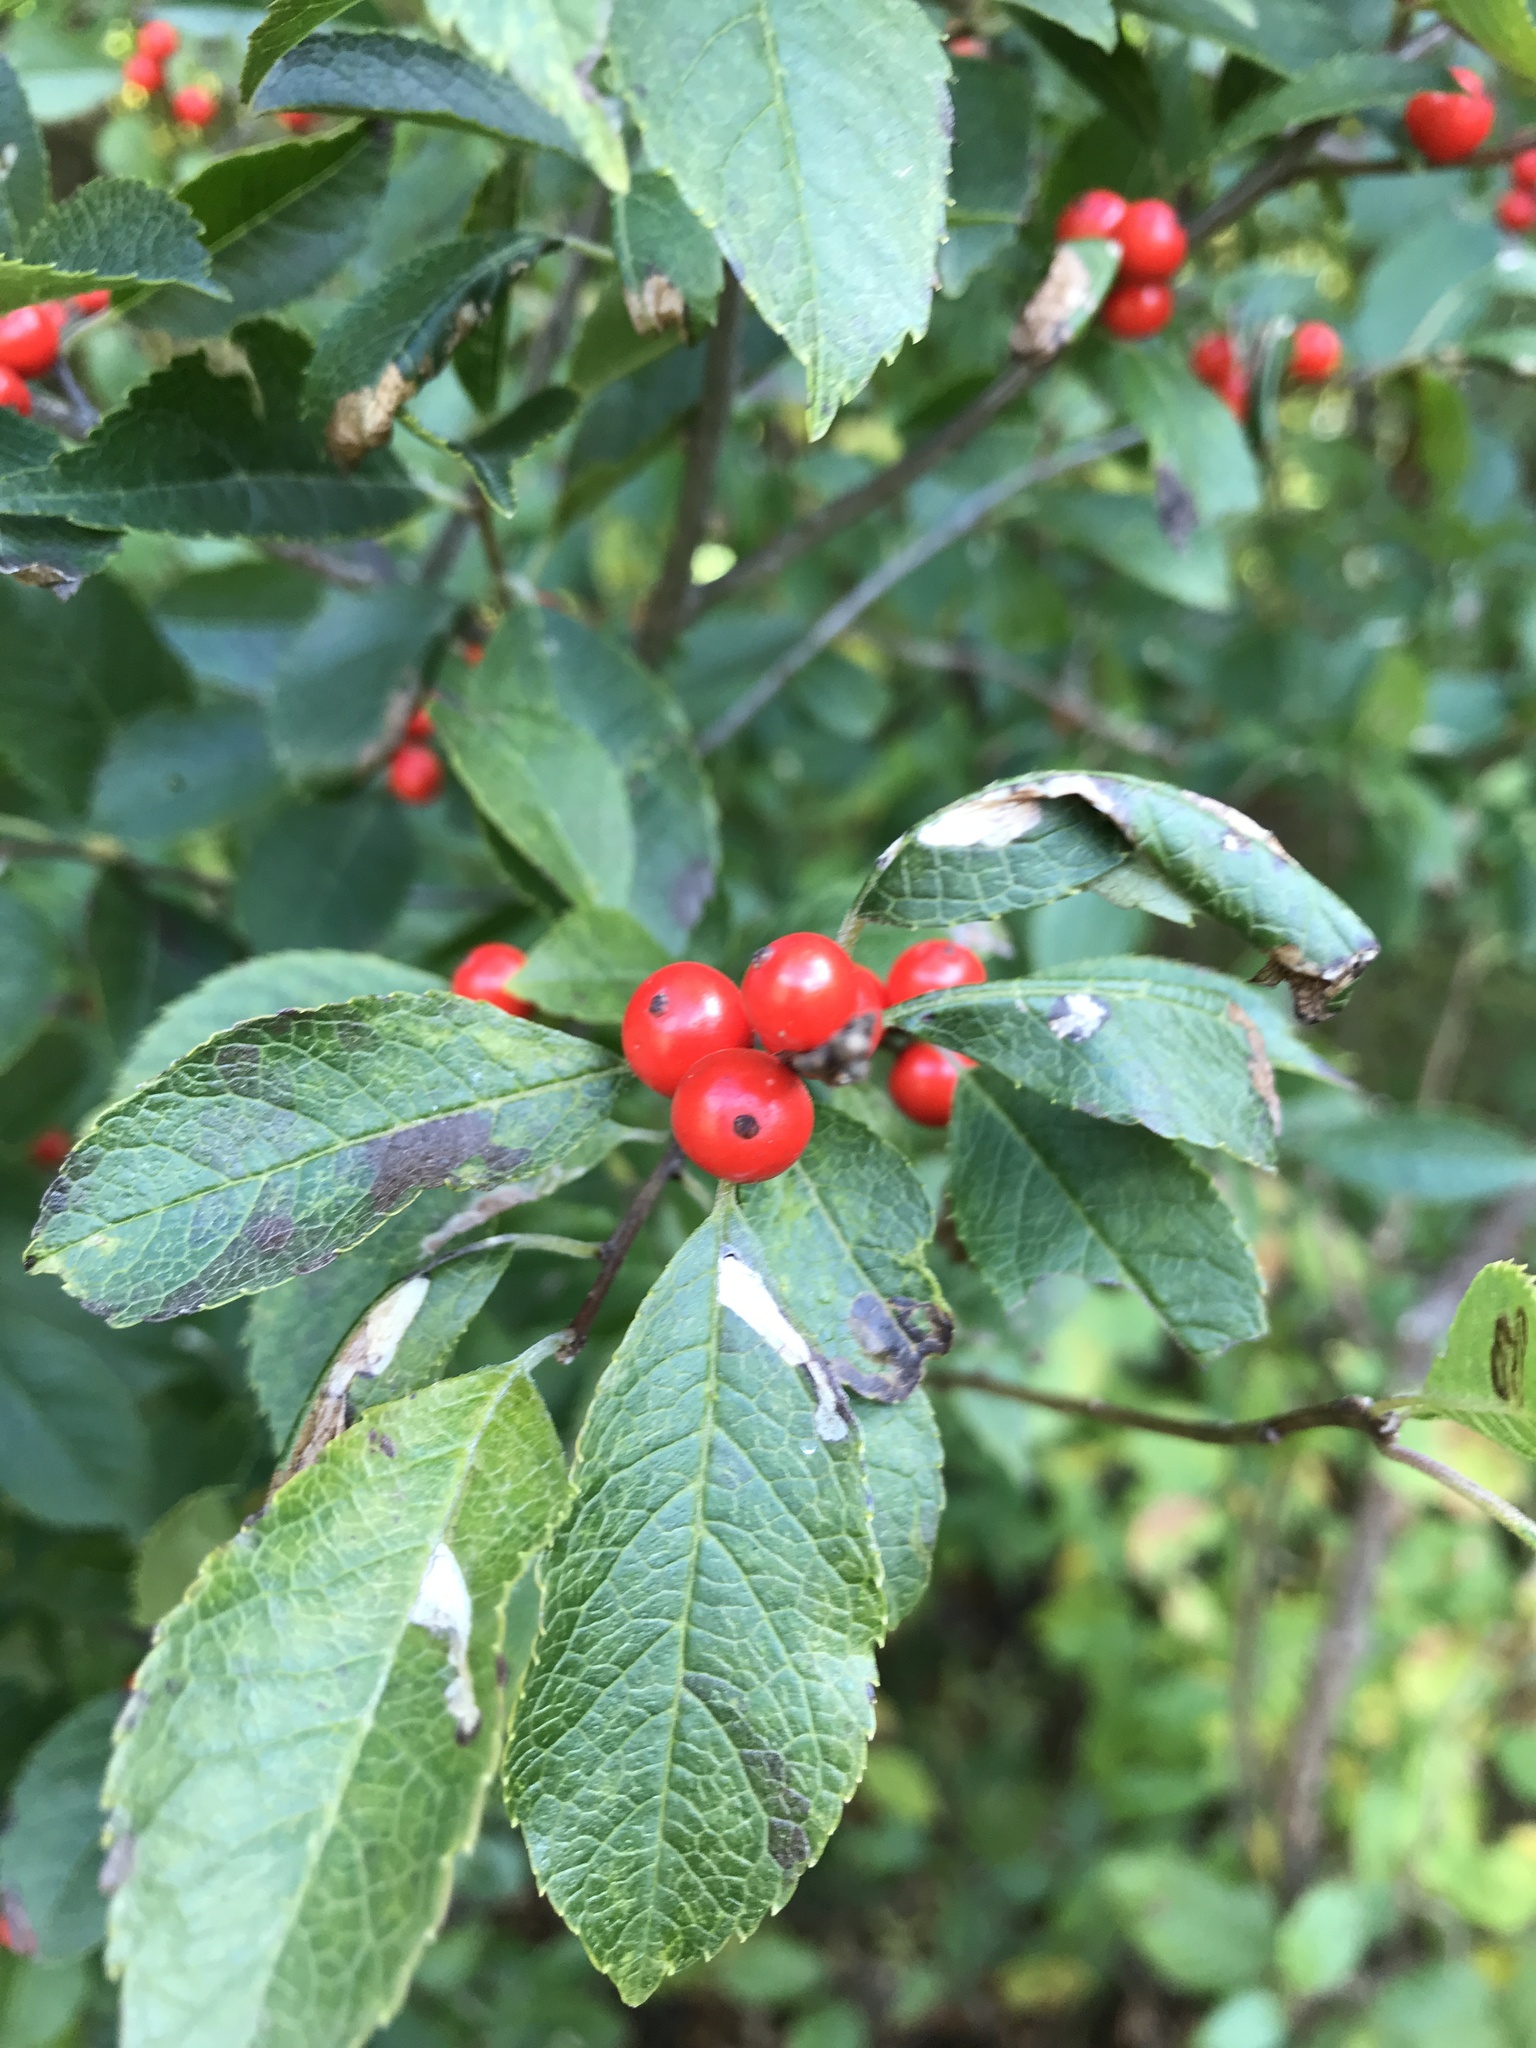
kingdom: Plantae
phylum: Tracheophyta
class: Magnoliopsida
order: Aquifoliales
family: Aquifoliaceae
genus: Ilex
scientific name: Ilex verticillata
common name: Virginia winterberry
